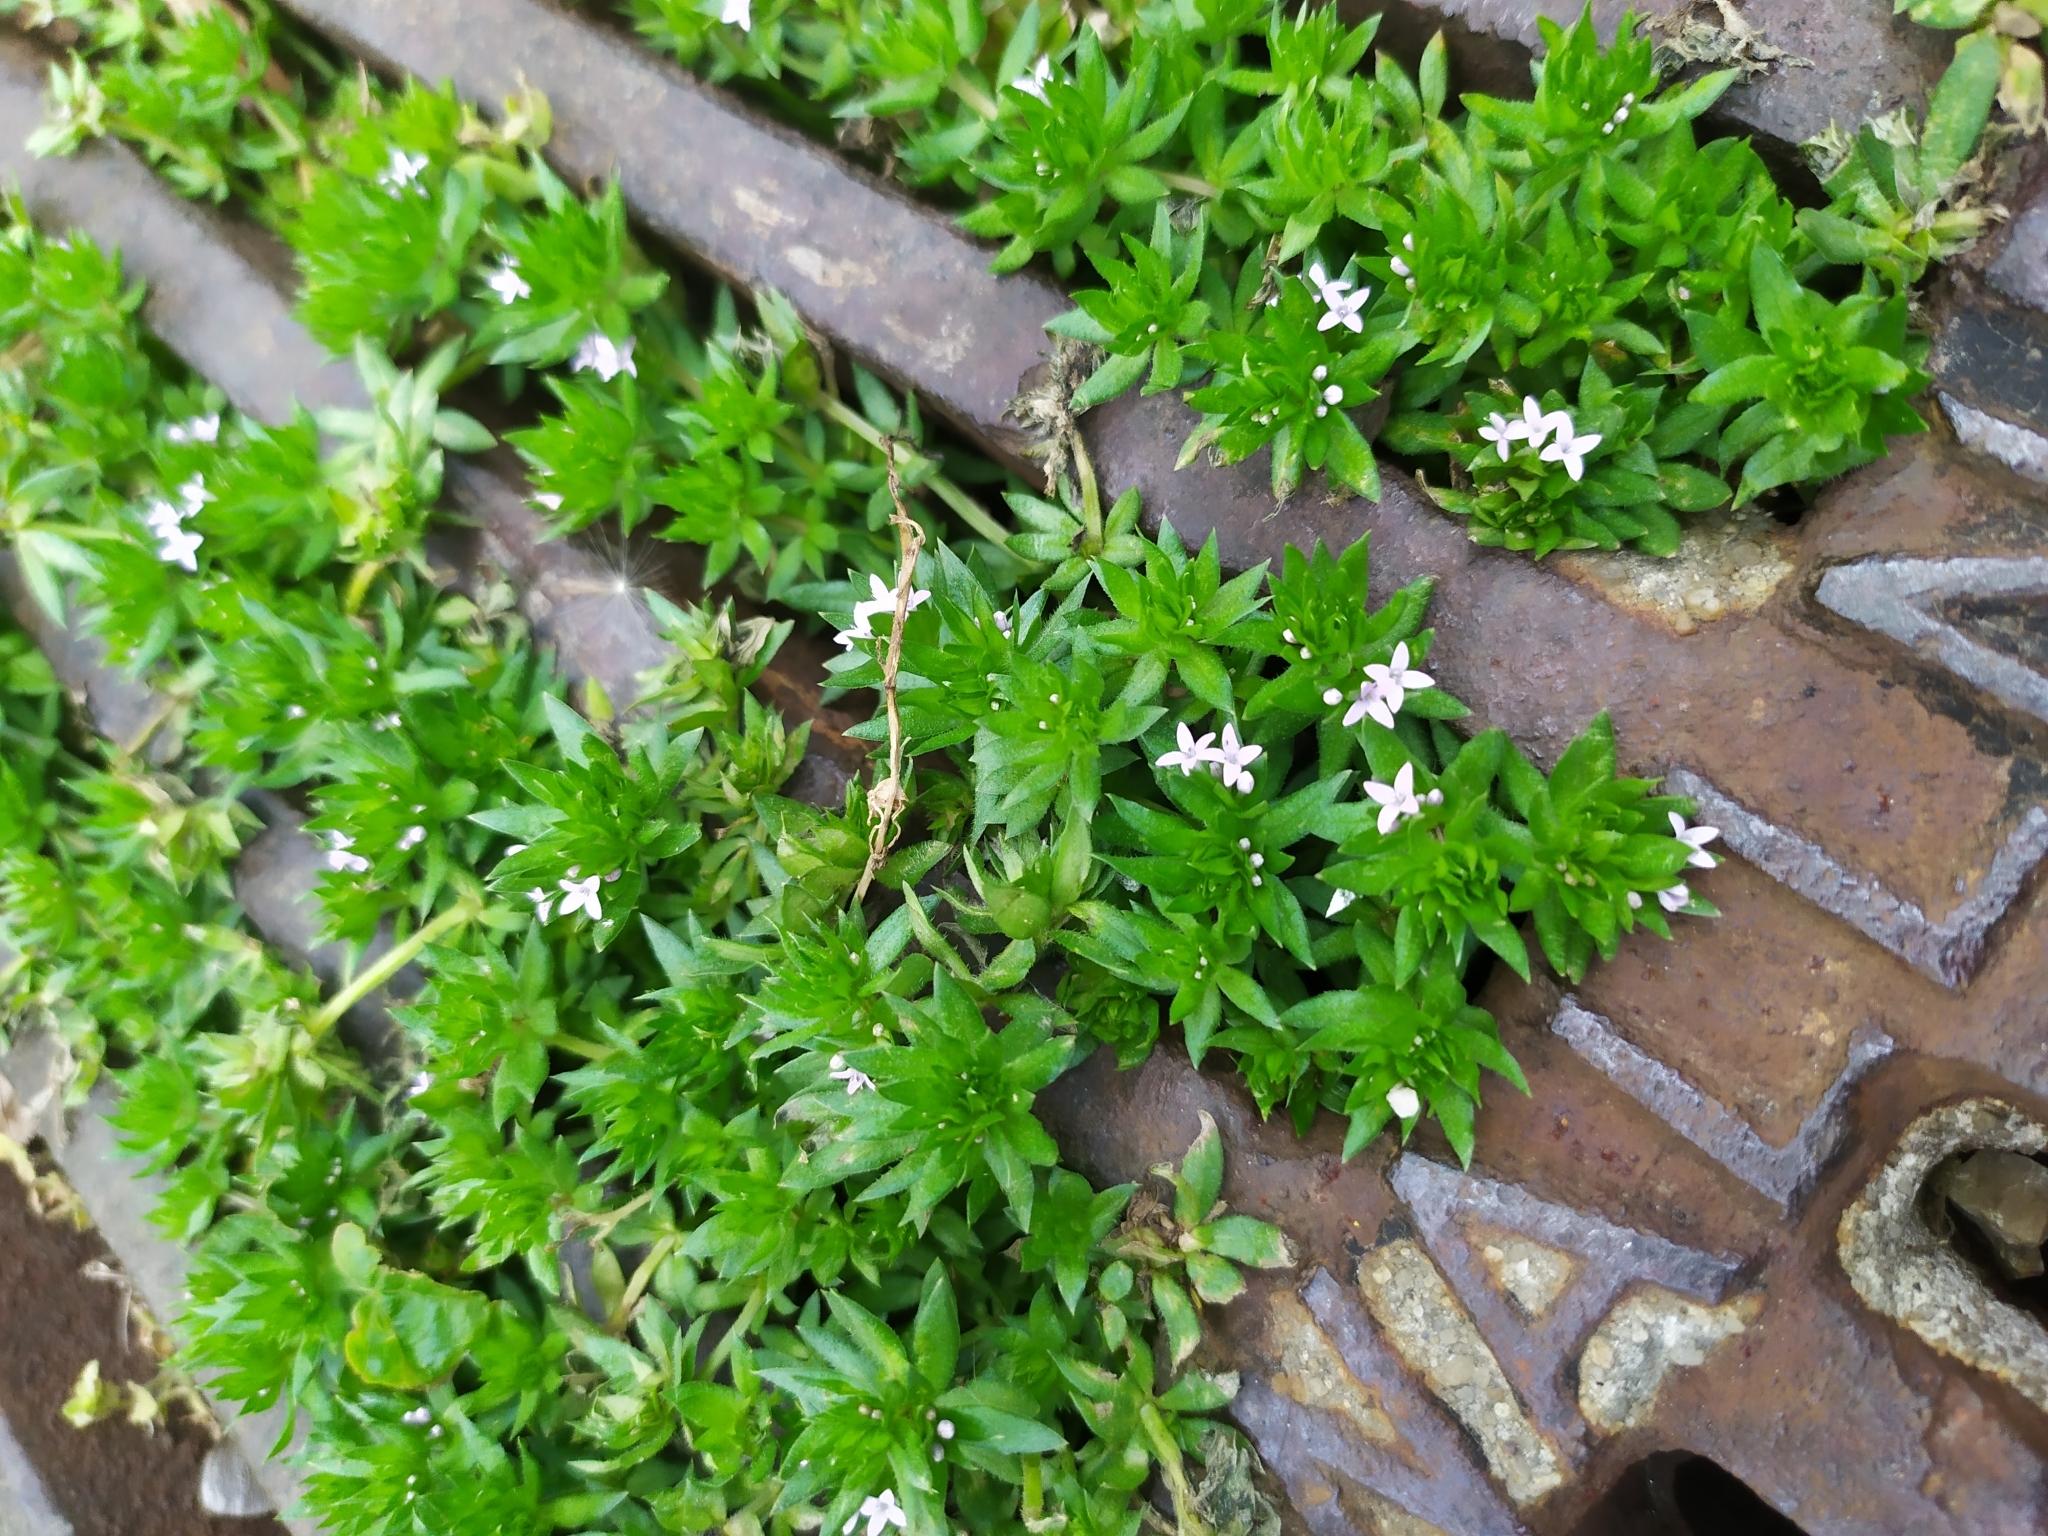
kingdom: Plantae
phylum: Tracheophyta
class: Magnoliopsida
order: Gentianales
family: Rubiaceae
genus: Sherardia
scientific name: Sherardia arvensis
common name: Field madder
